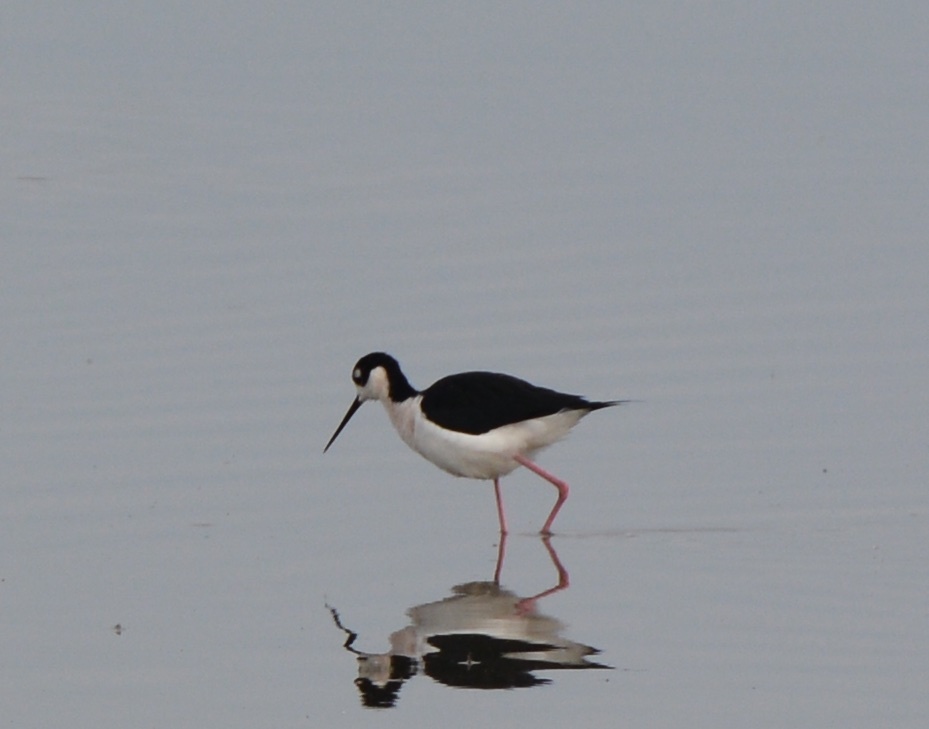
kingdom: Animalia
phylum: Chordata
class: Aves
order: Charadriiformes
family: Recurvirostridae
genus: Himantopus
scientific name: Himantopus mexicanus
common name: Black-necked stilt
